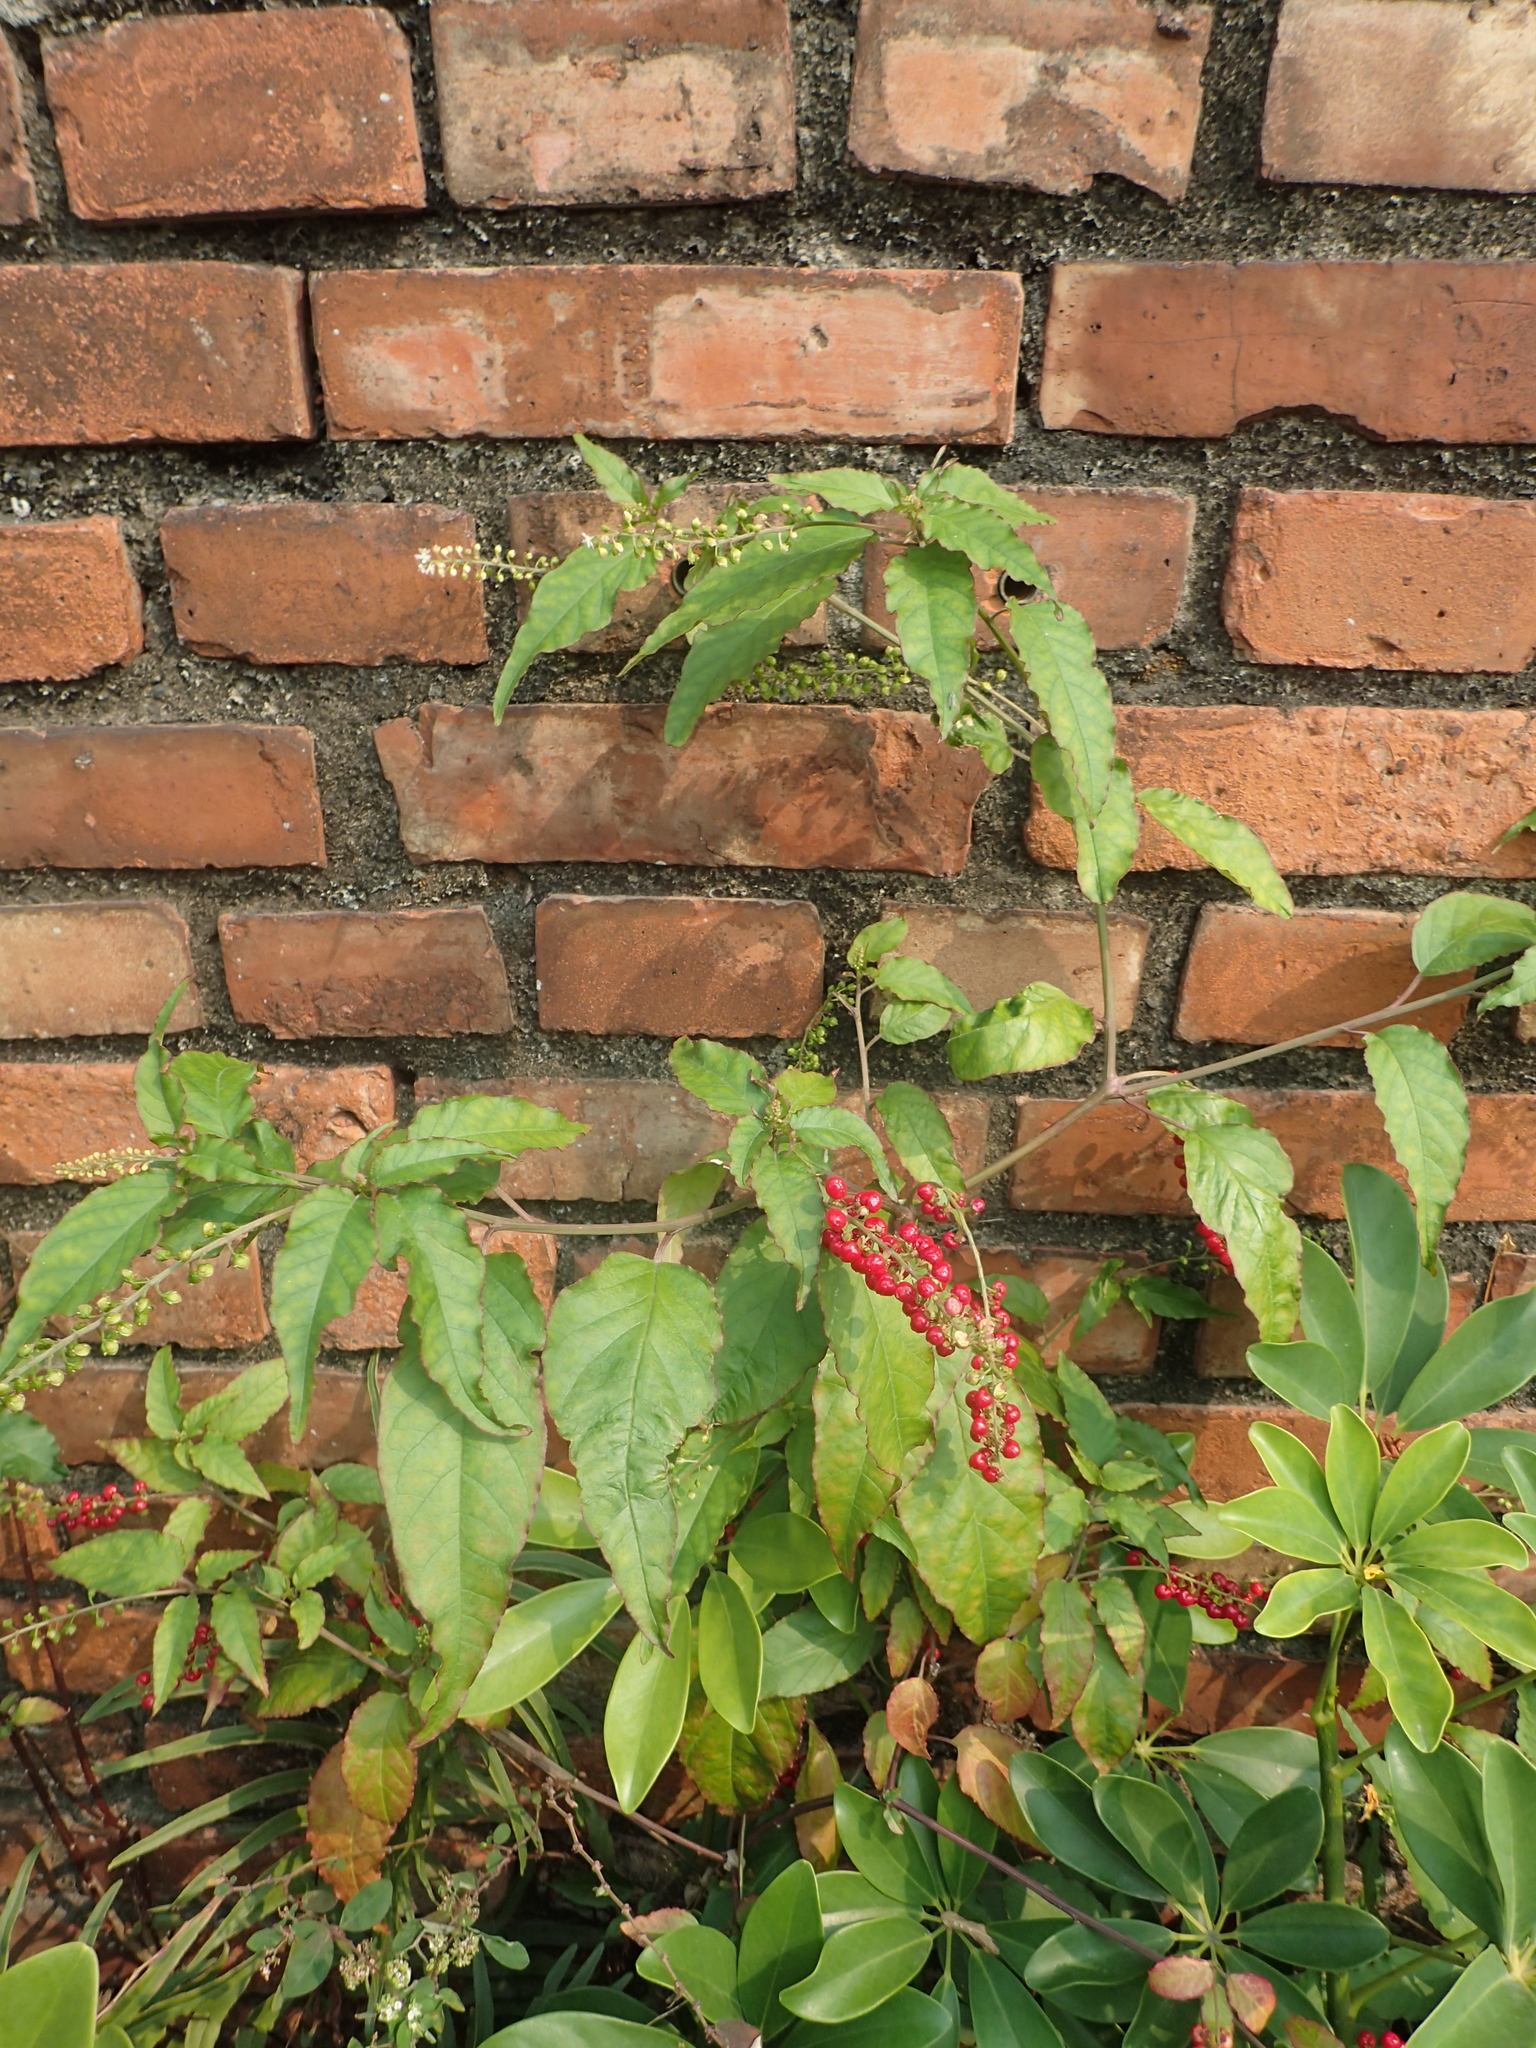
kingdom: Plantae
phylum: Tracheophyta
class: Magnoliopsida
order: Caryophyllales
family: Phytolaccaceae
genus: Rivina
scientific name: Rivina humilis
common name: Rougeplant
